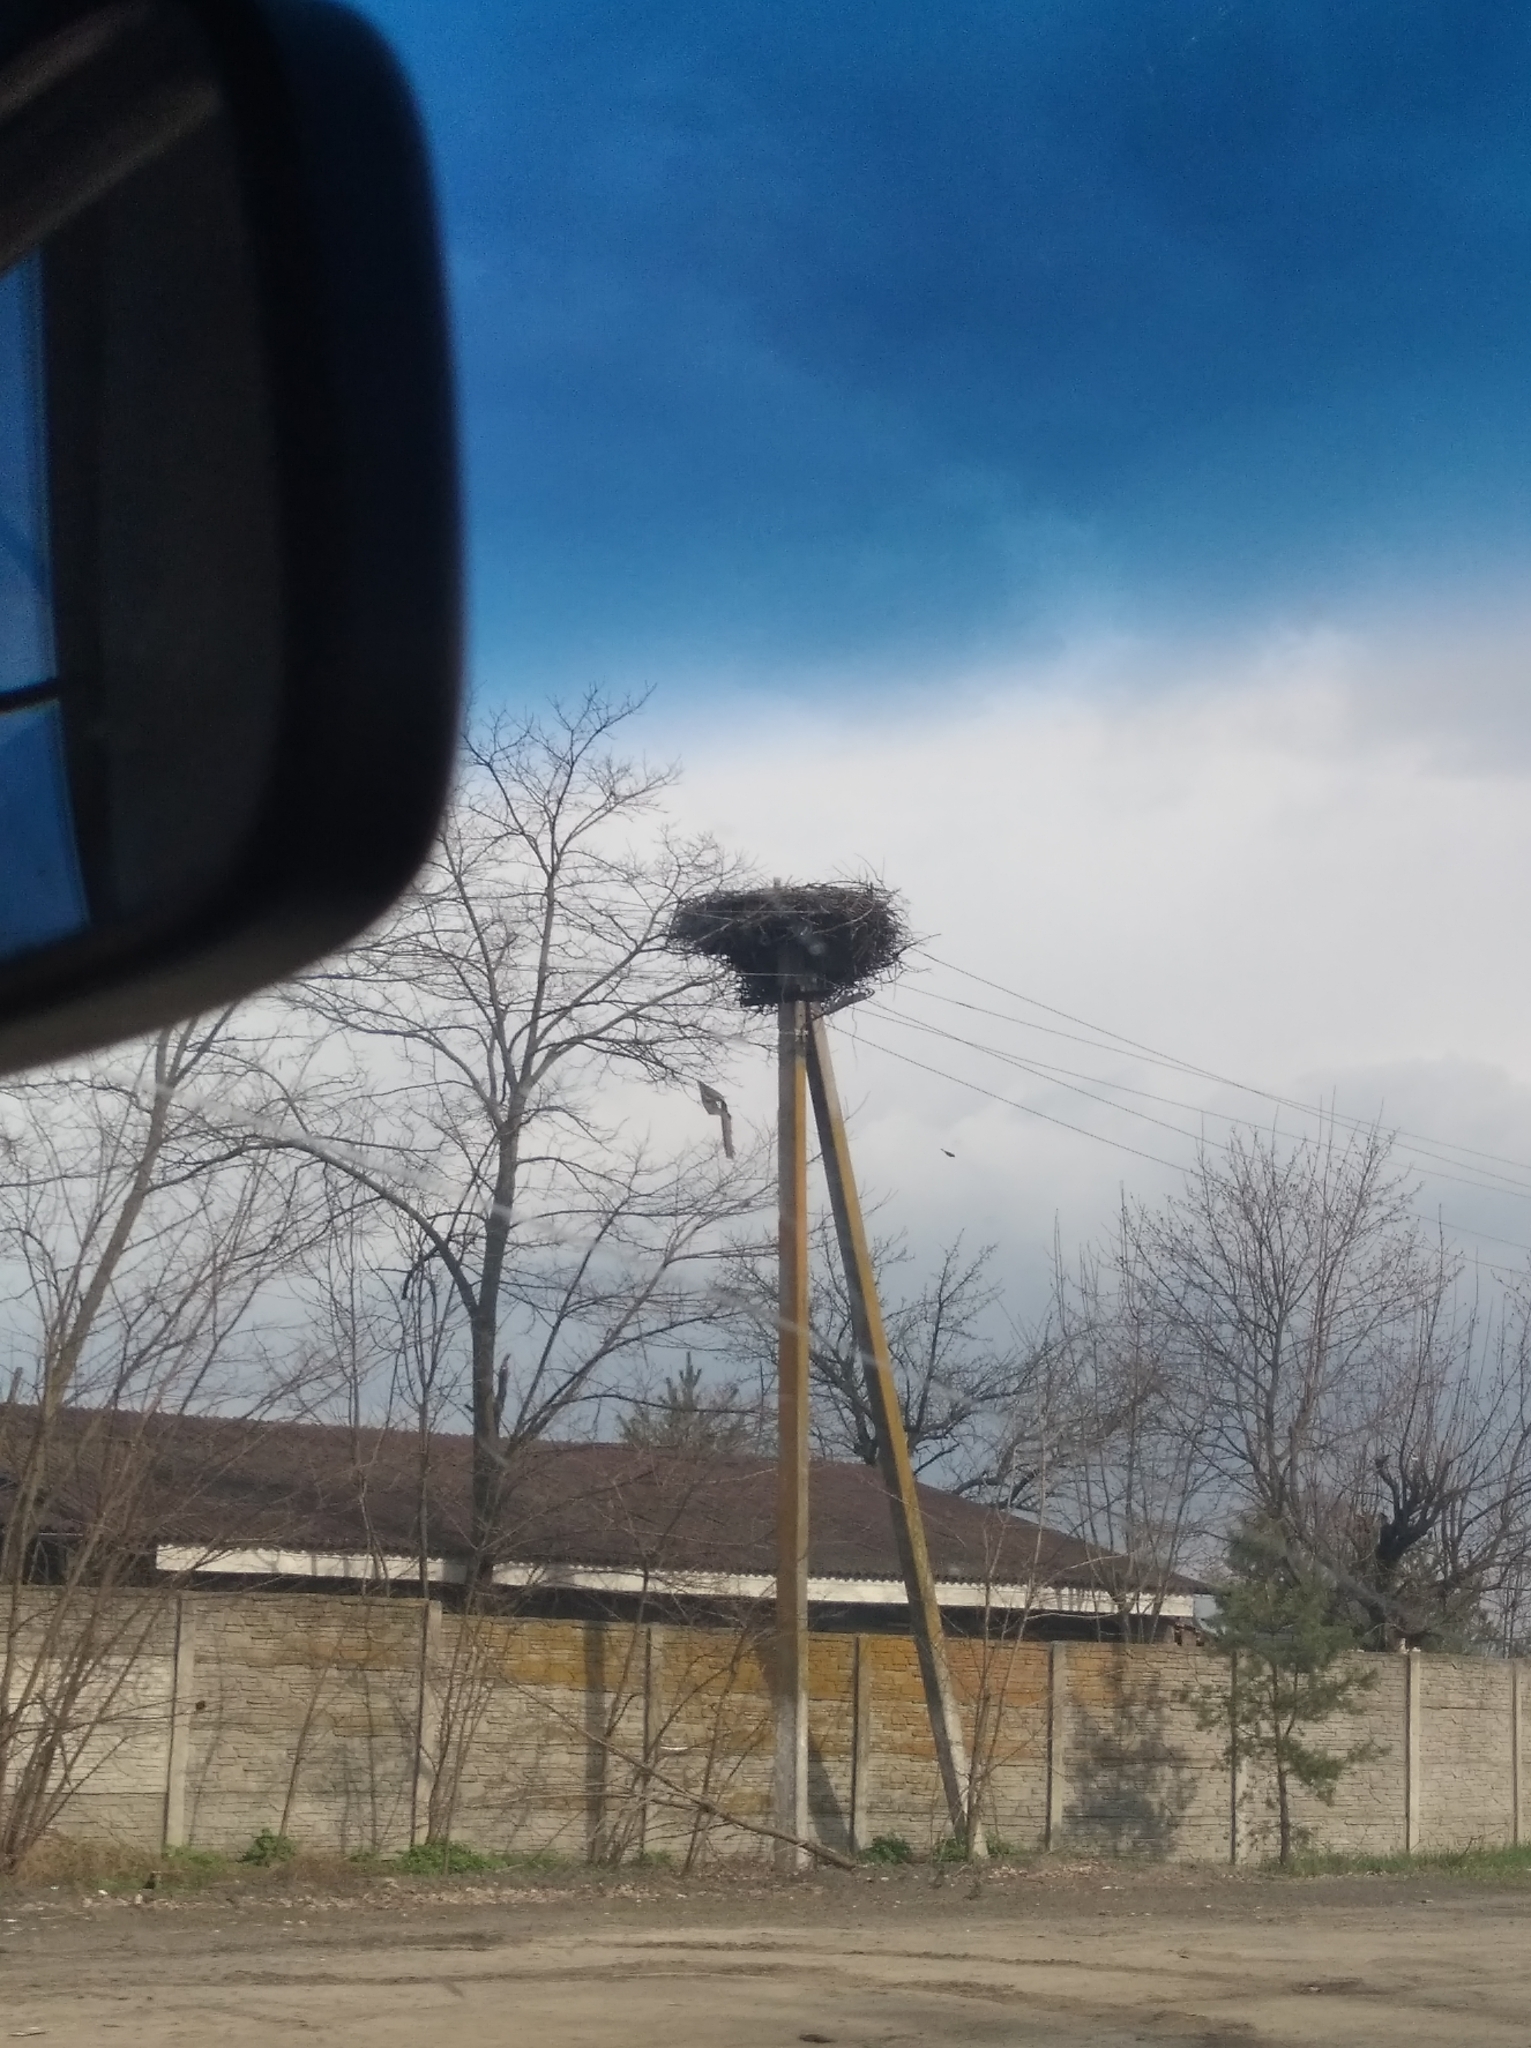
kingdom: Animalia
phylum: Chordata
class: Aves
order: Ciconiiformes
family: Ciconiidae
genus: Ciconia
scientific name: Ciconia ciconia
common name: White stork
